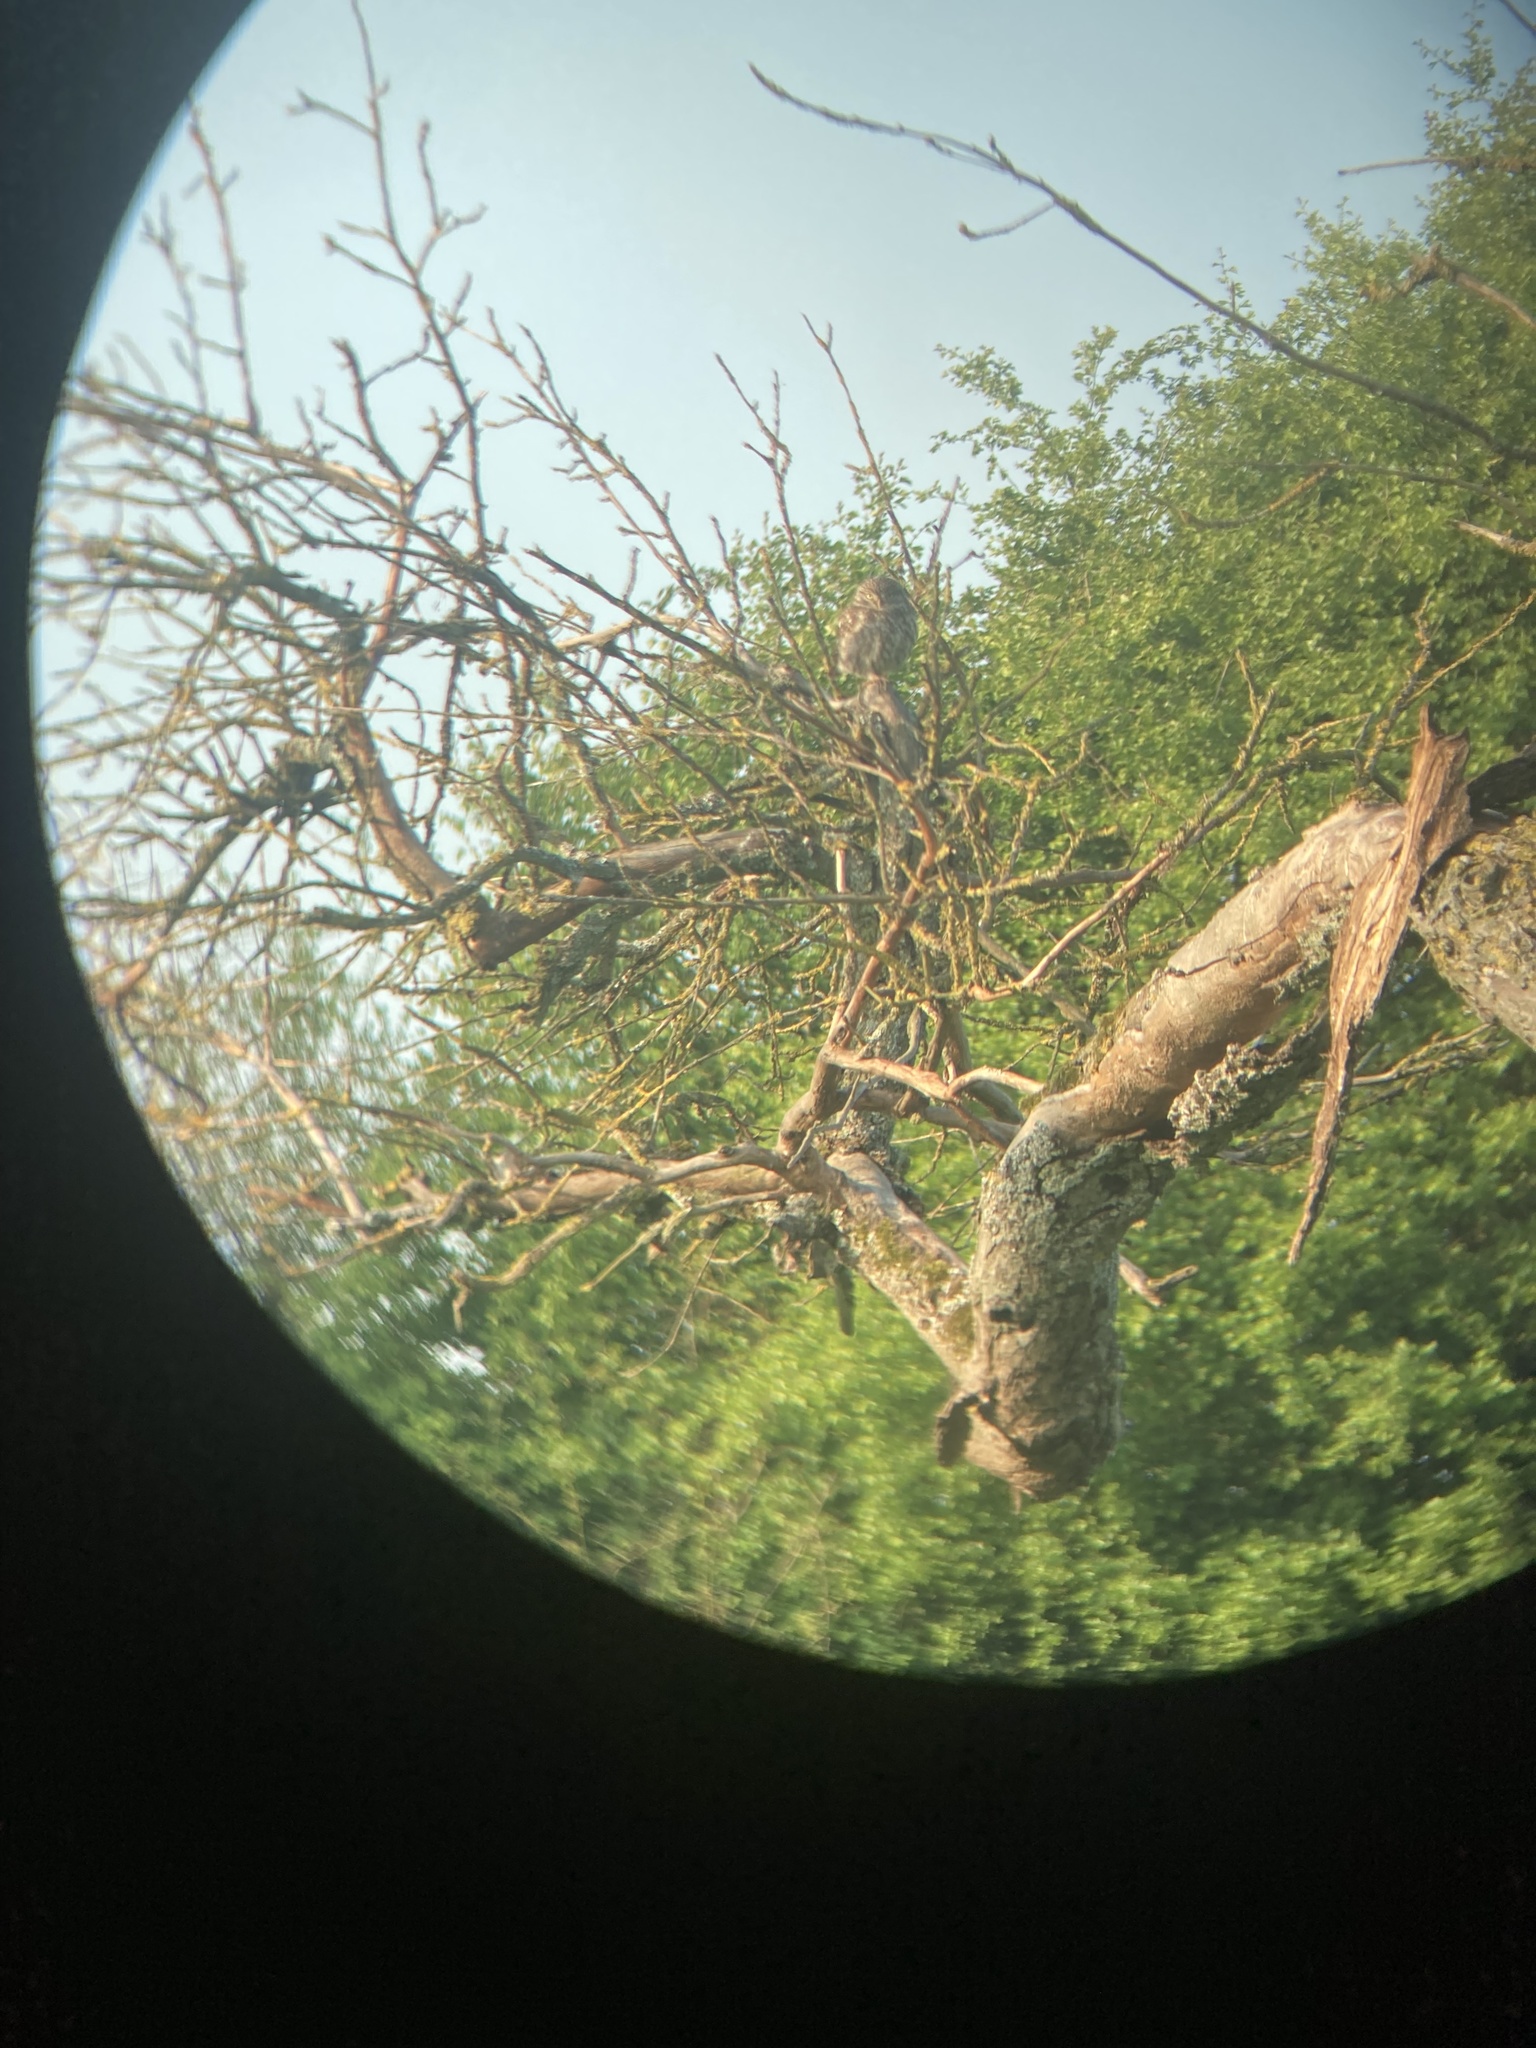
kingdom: Animalia
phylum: Chordata
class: Aves
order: Strigiformes
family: Strigidae
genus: Athene
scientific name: Athene noctua
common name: Little owl
